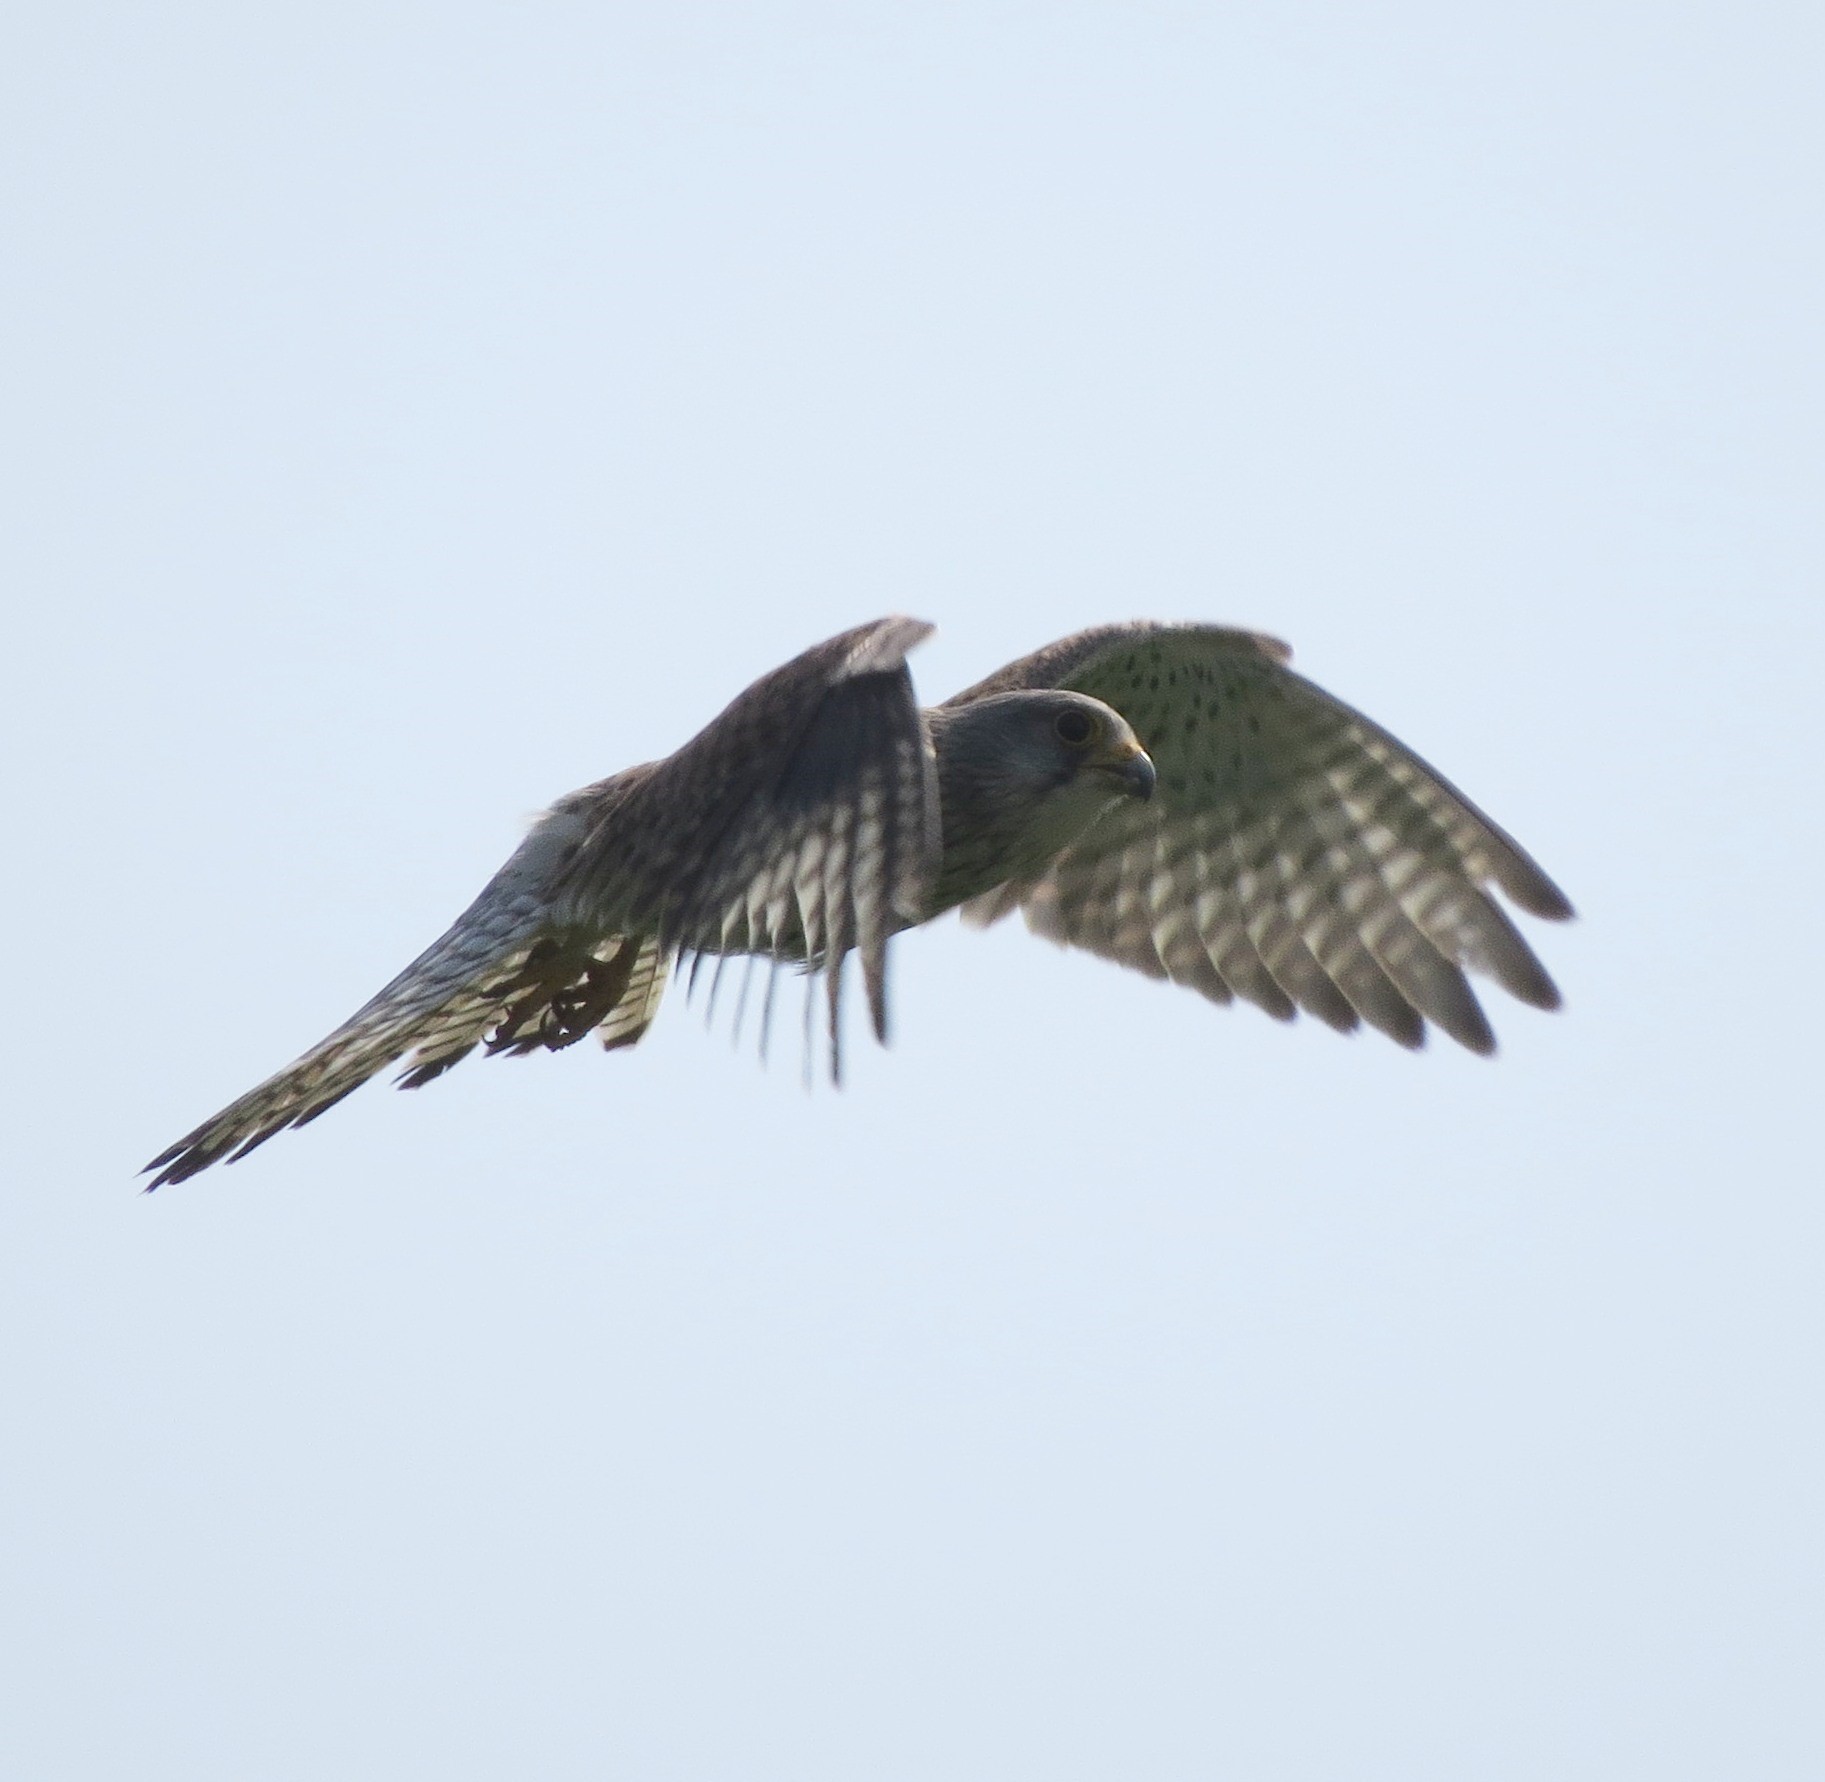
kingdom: Animalia
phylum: Chordata
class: Aves
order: Falconiformes
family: Falconidae
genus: Falco
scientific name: Falco tinnunculus
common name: Common kestrel
